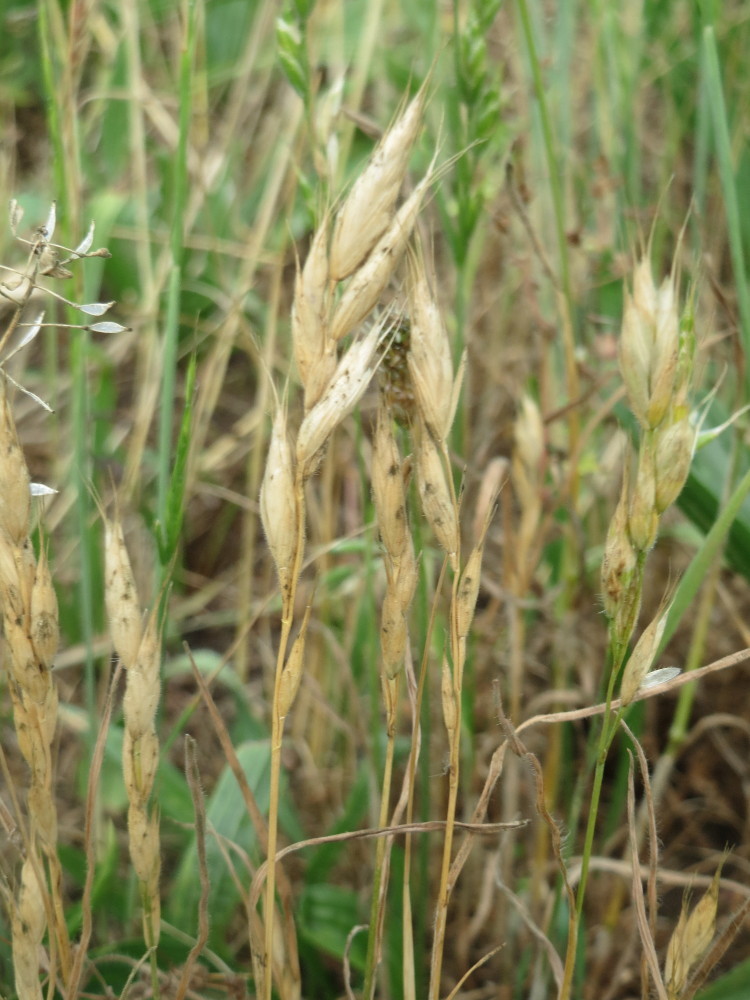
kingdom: Plantae
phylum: Tracheophyta
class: Liliopsida
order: Poales
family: Poaceae
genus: Bromus
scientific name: Bromus hordeaceus
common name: Soft brome
